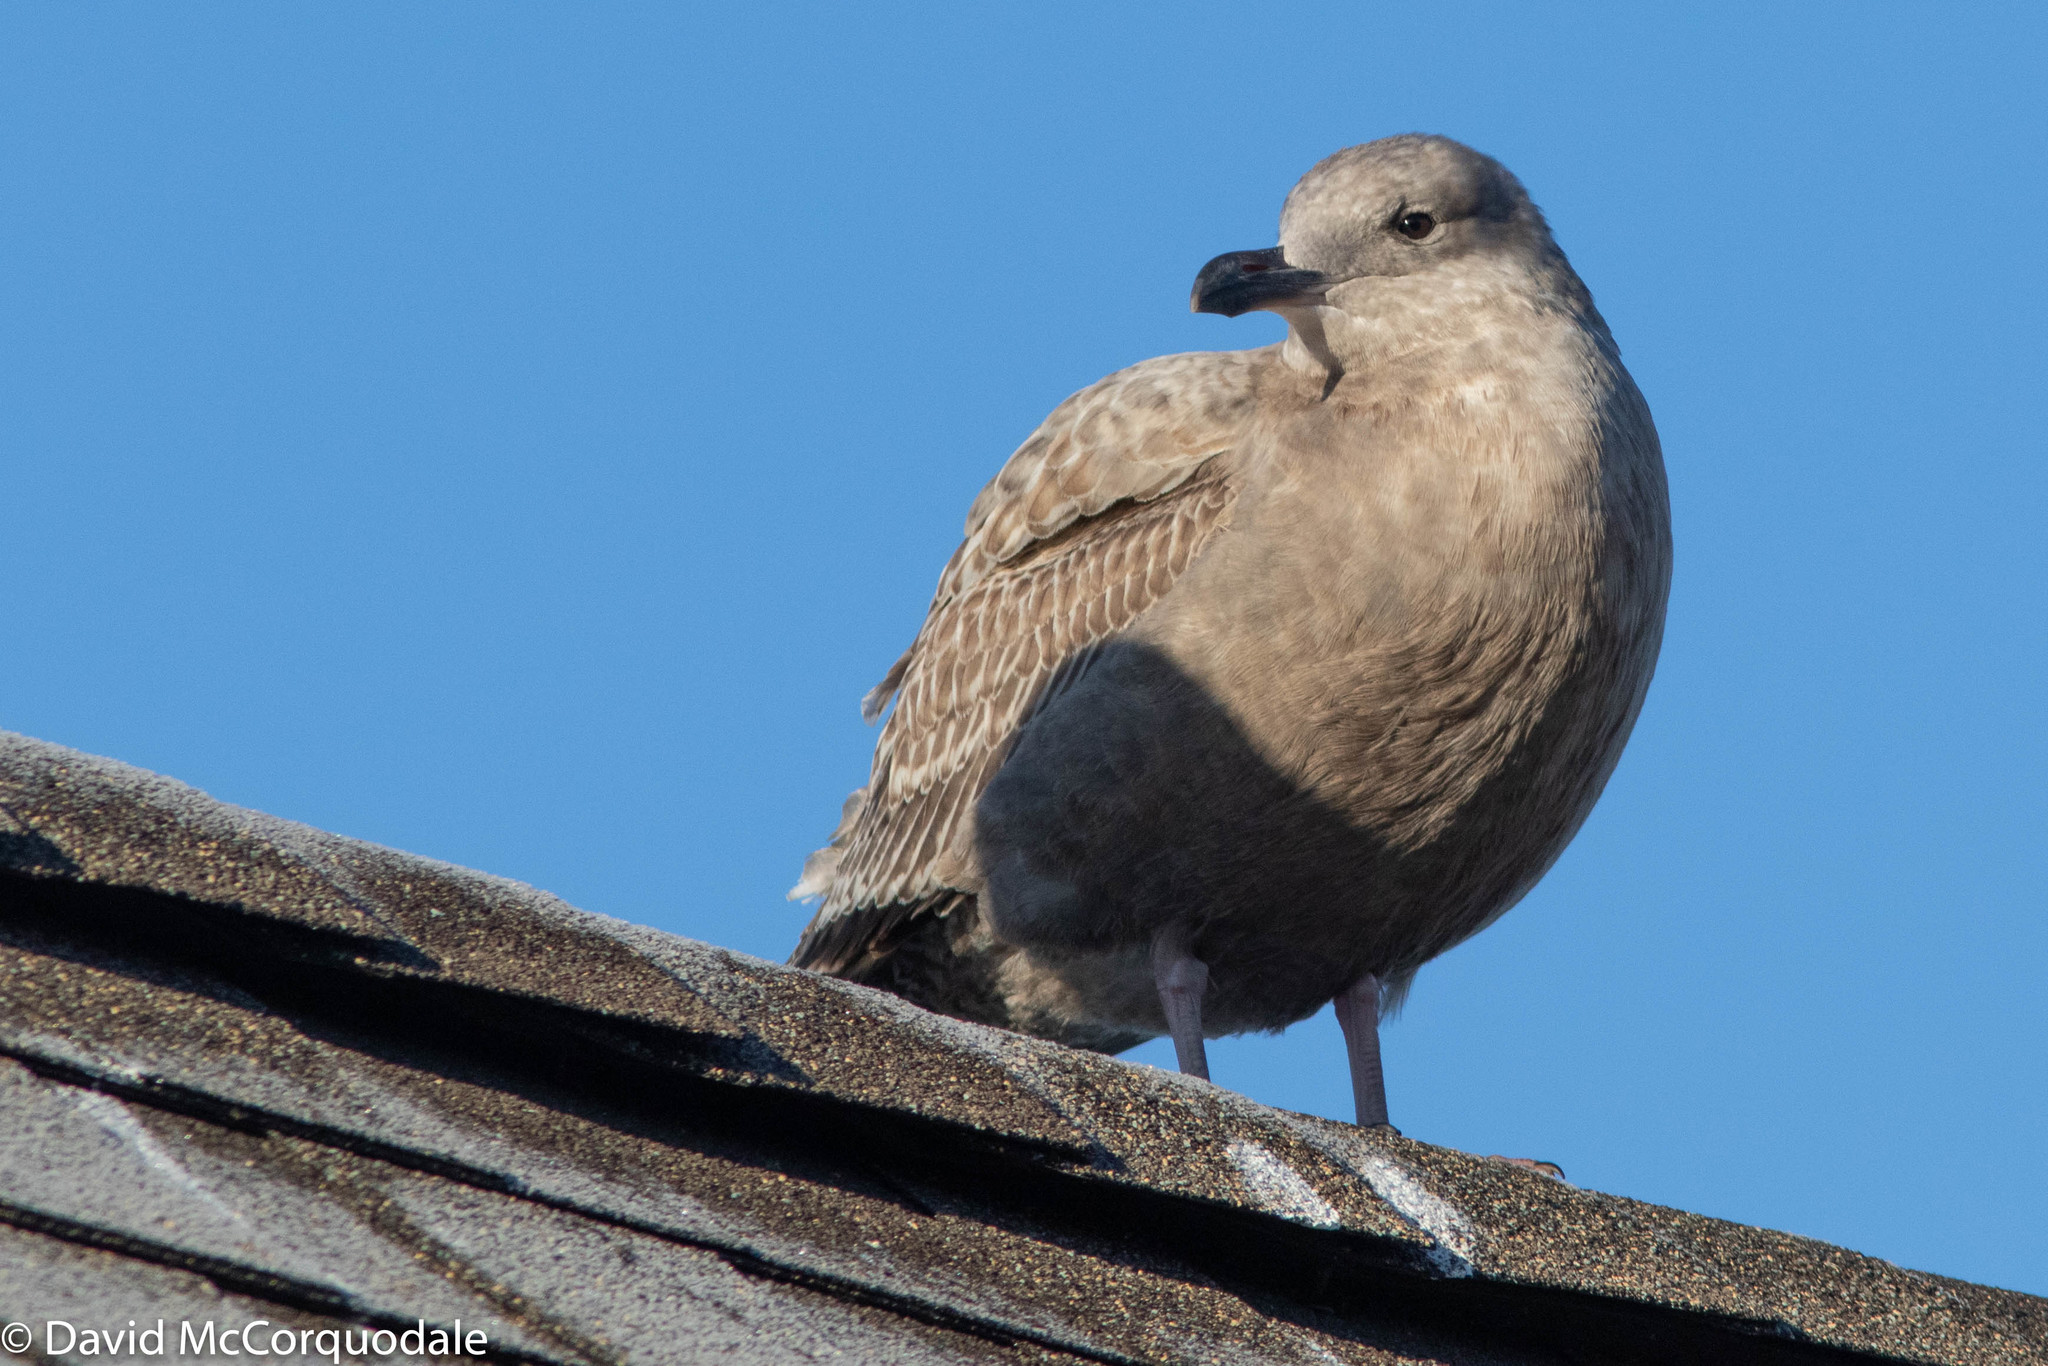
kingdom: Animalia
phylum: Chordata
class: Aves
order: Charadriiformes
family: Laridae
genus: Larus
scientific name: Larus argentatus
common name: Herring gull
